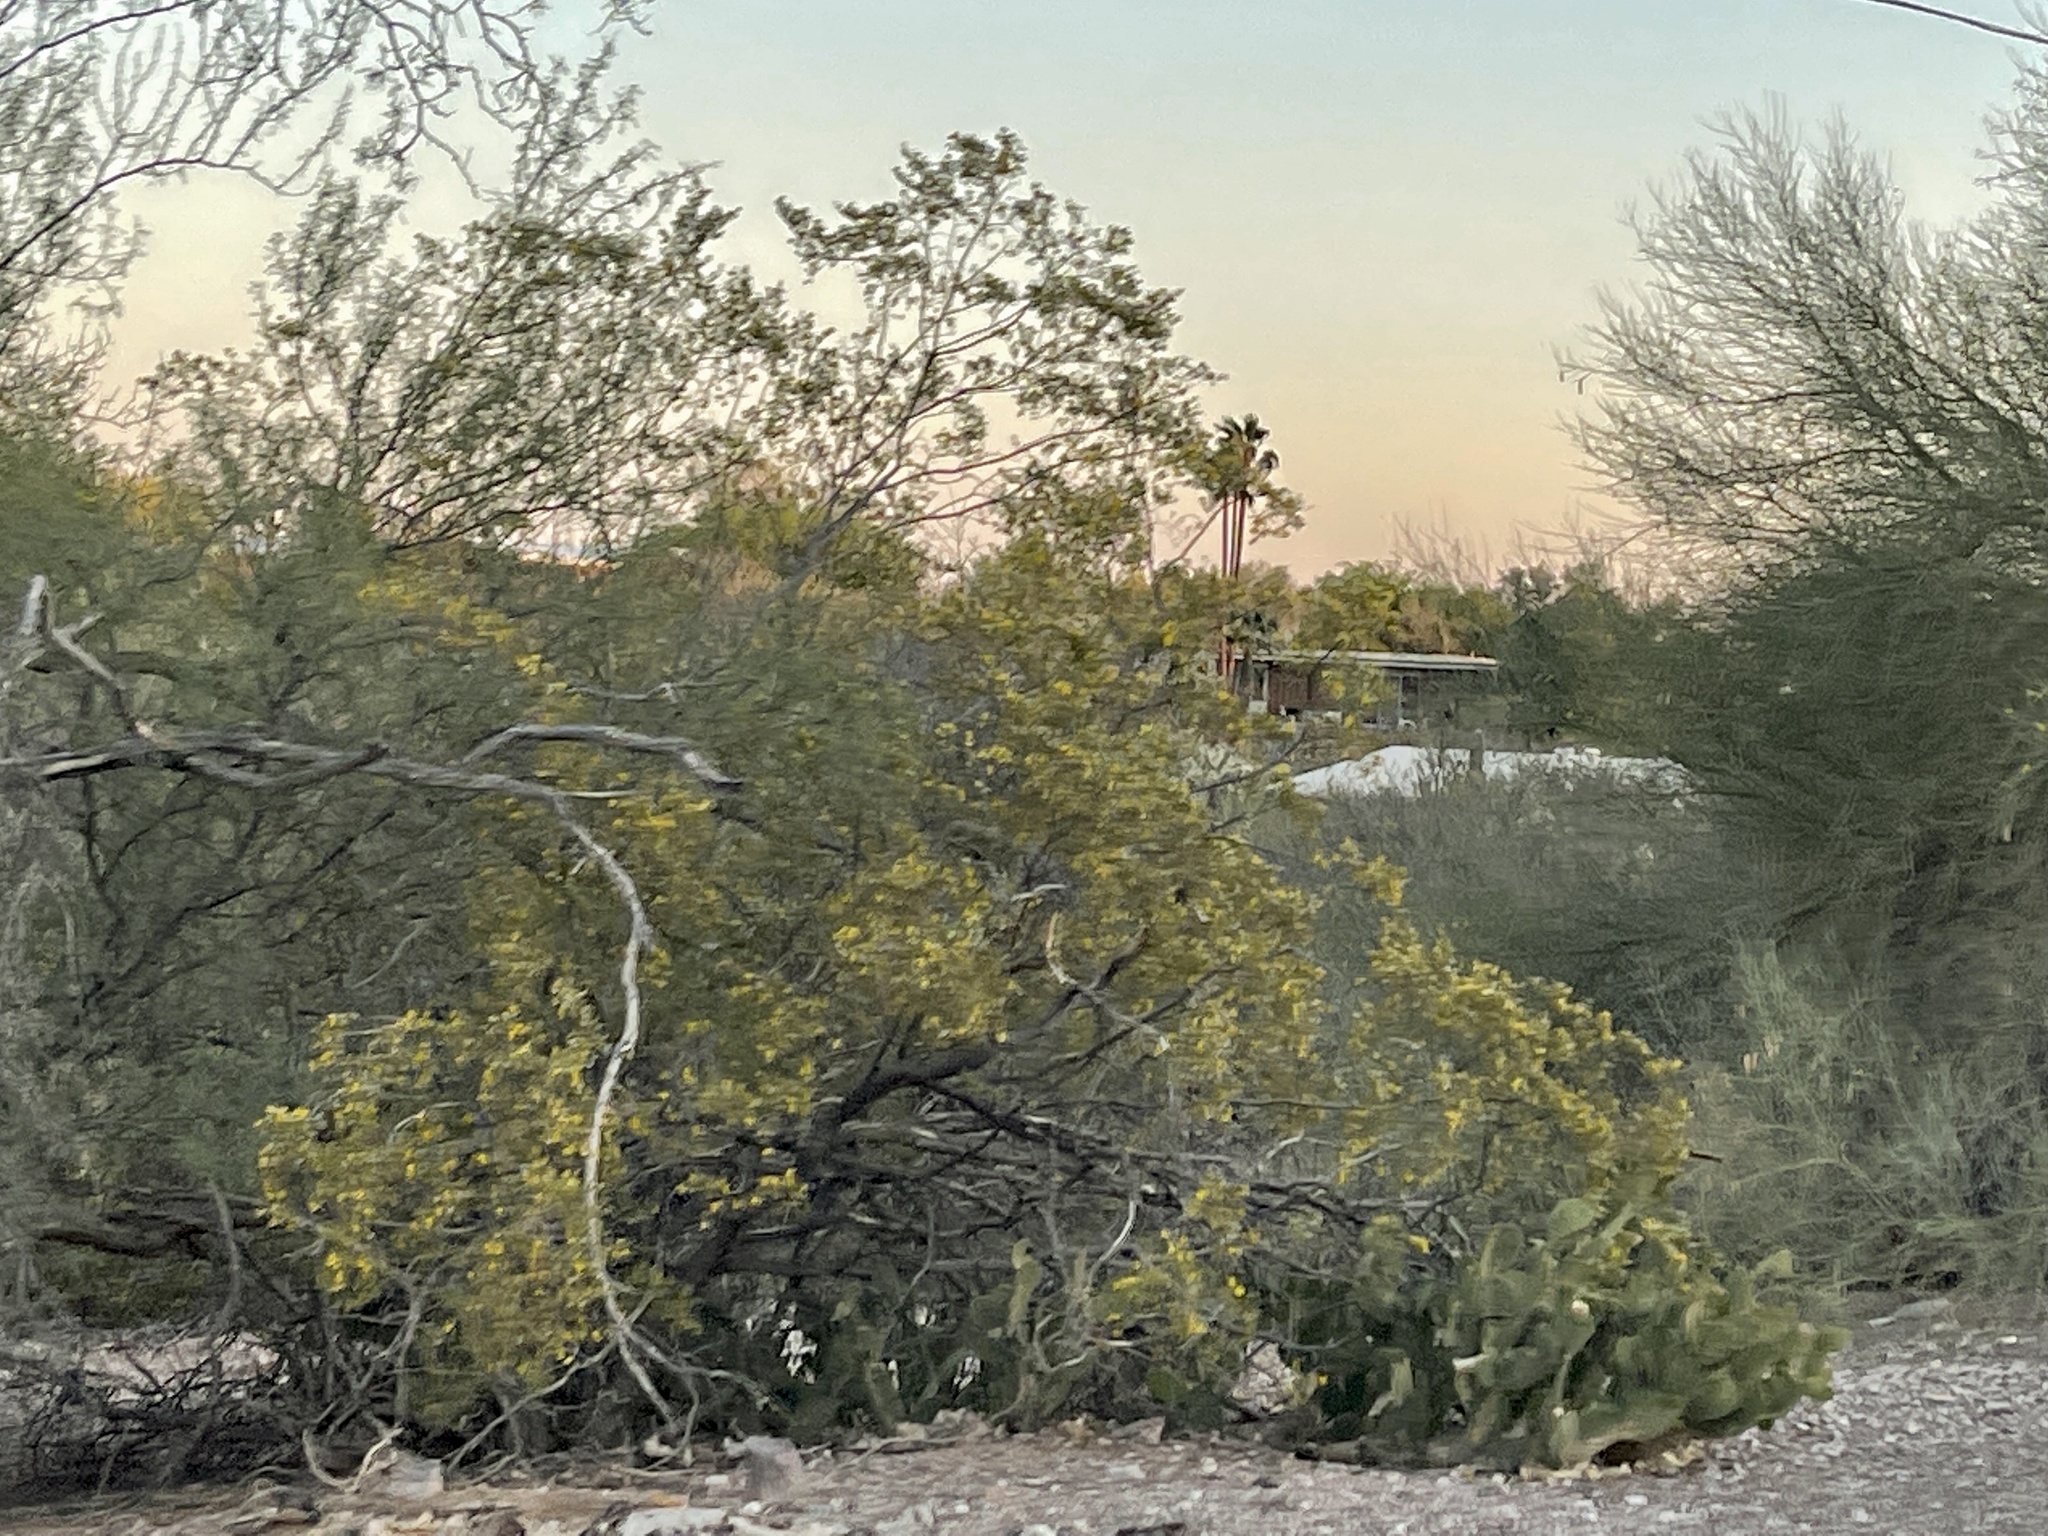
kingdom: Plantae
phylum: Tracheophyta
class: Magnoliopsida
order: Zygophyllales
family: Zygophyllaceae
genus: Larrea
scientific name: Larrea tridentata
